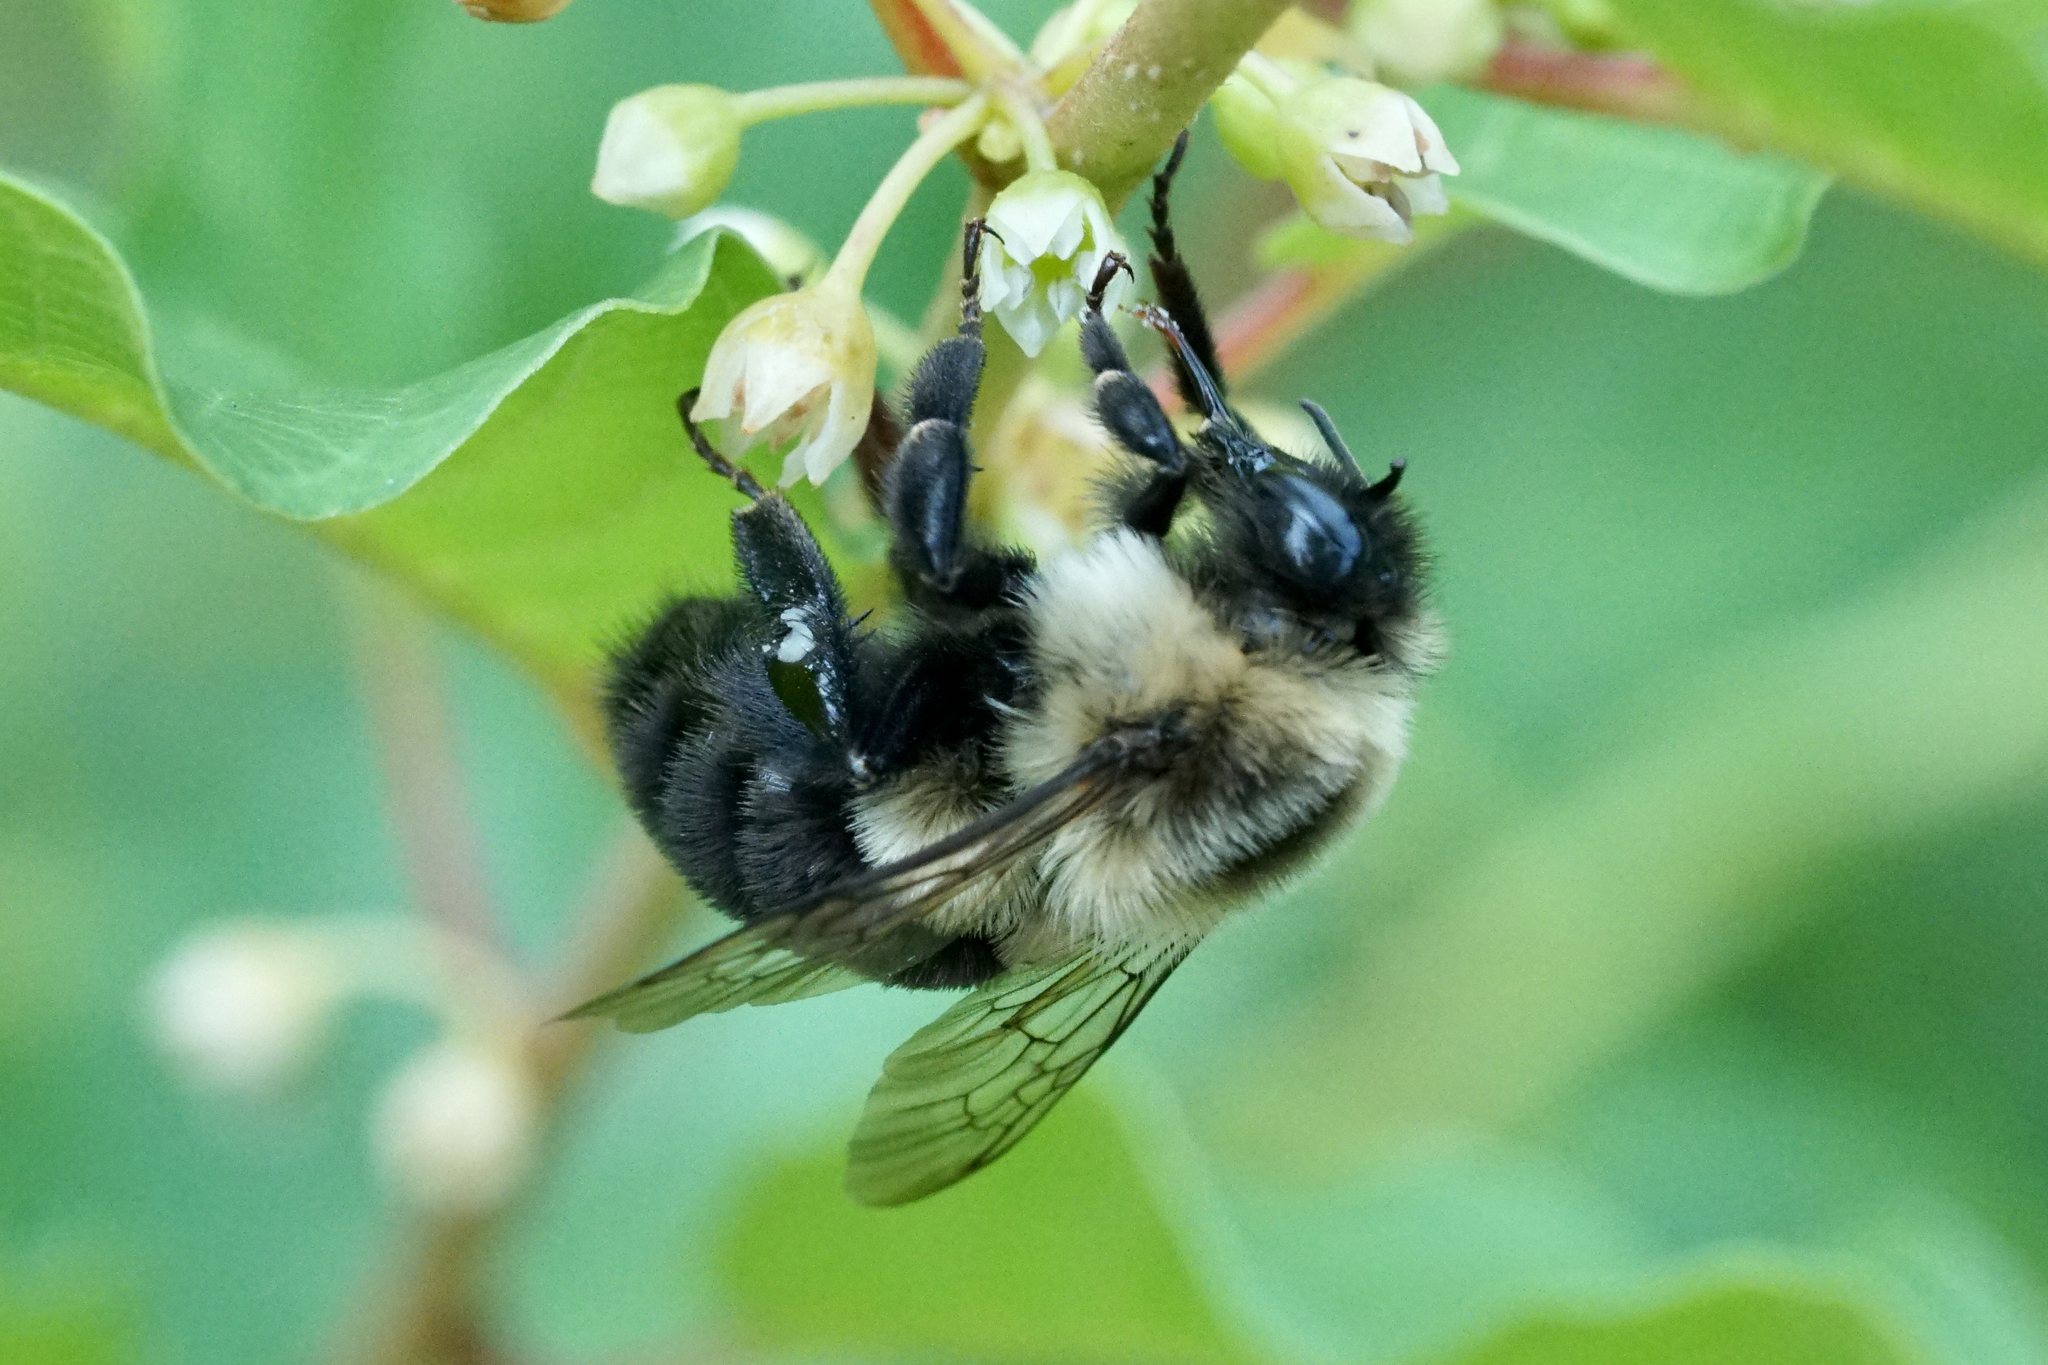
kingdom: Animalia
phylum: Arthropoda
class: Insecta
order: Hymenoptera
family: Apidae
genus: Bombus
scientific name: Bombus impatiens
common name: Common eastern bumble bee
